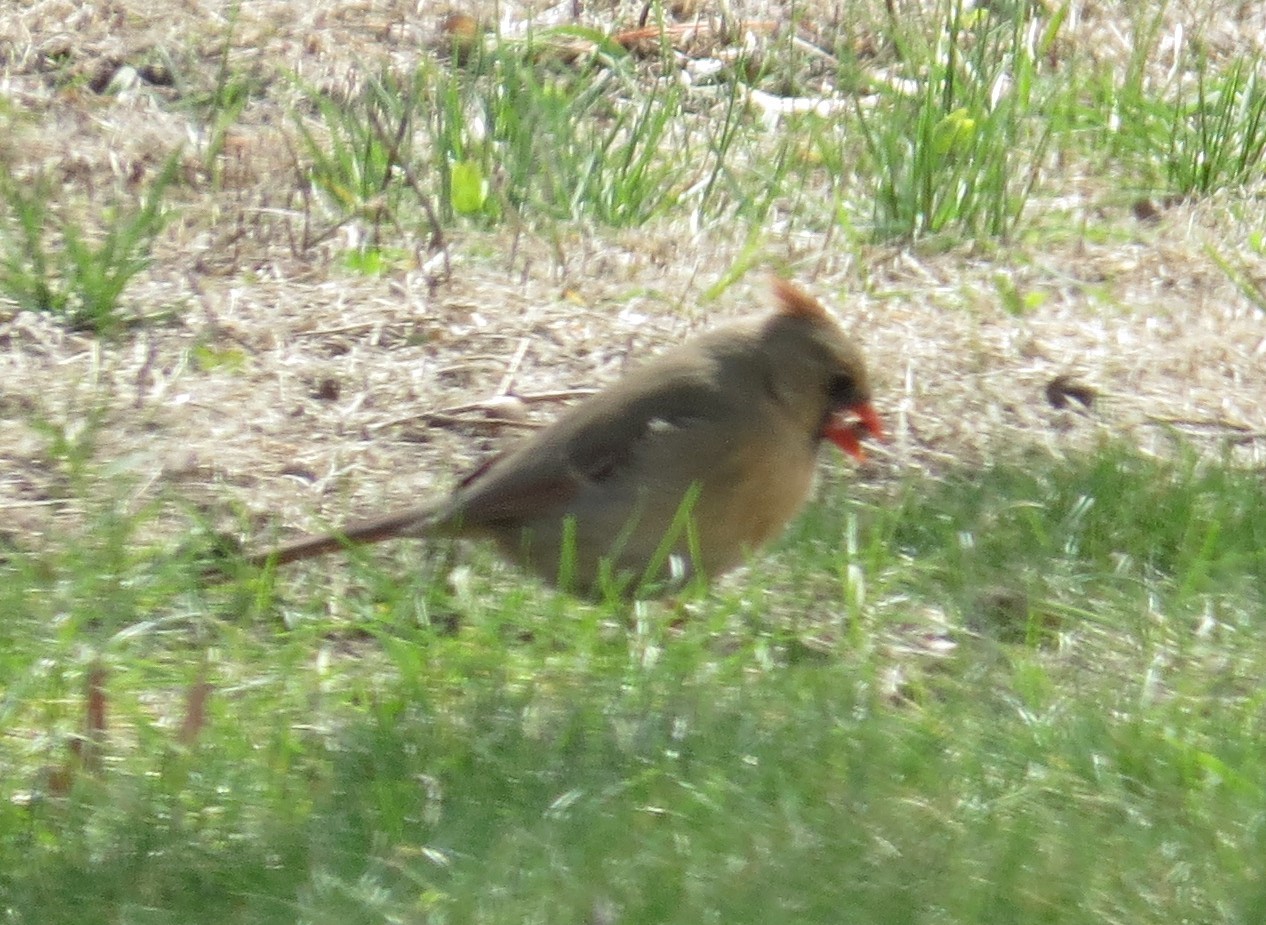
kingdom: Animalia
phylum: Chordata
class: Aves
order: Passeriformes
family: Cardinalidae
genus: Cardinalis
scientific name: Cardinalis cardinalis
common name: Northern cardinal
